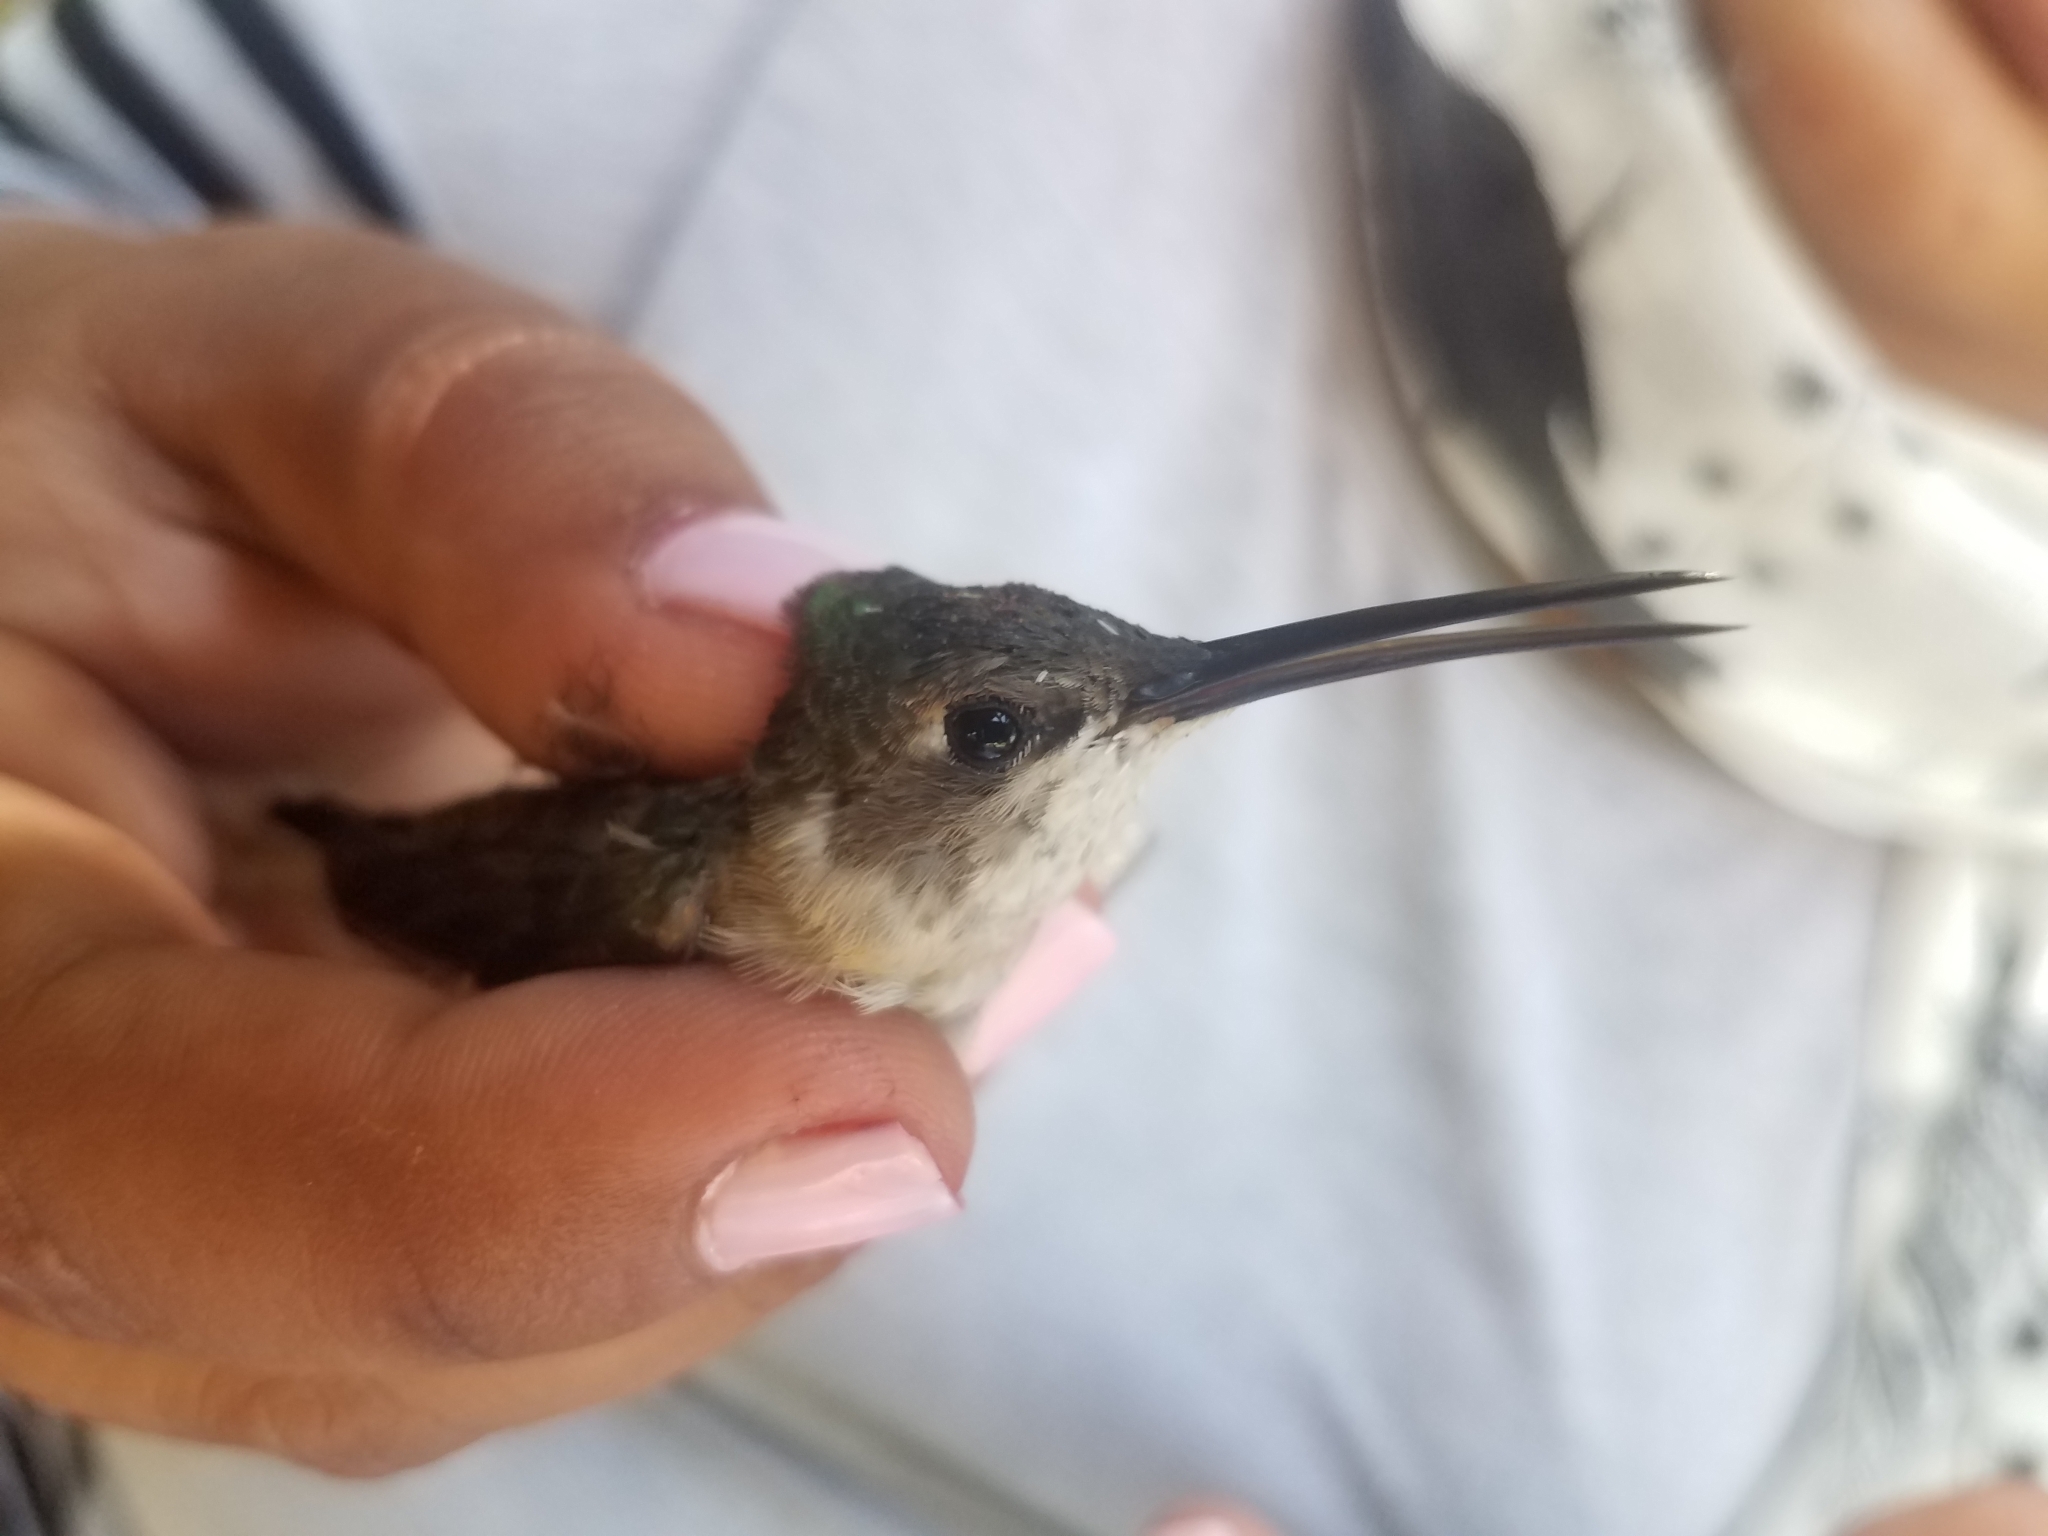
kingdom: Animalia
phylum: Chordata
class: Aves
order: Apodiformes
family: Trochilidae
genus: Archilochus
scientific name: Archilochus colubris
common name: Ruby-throated hummingbird
